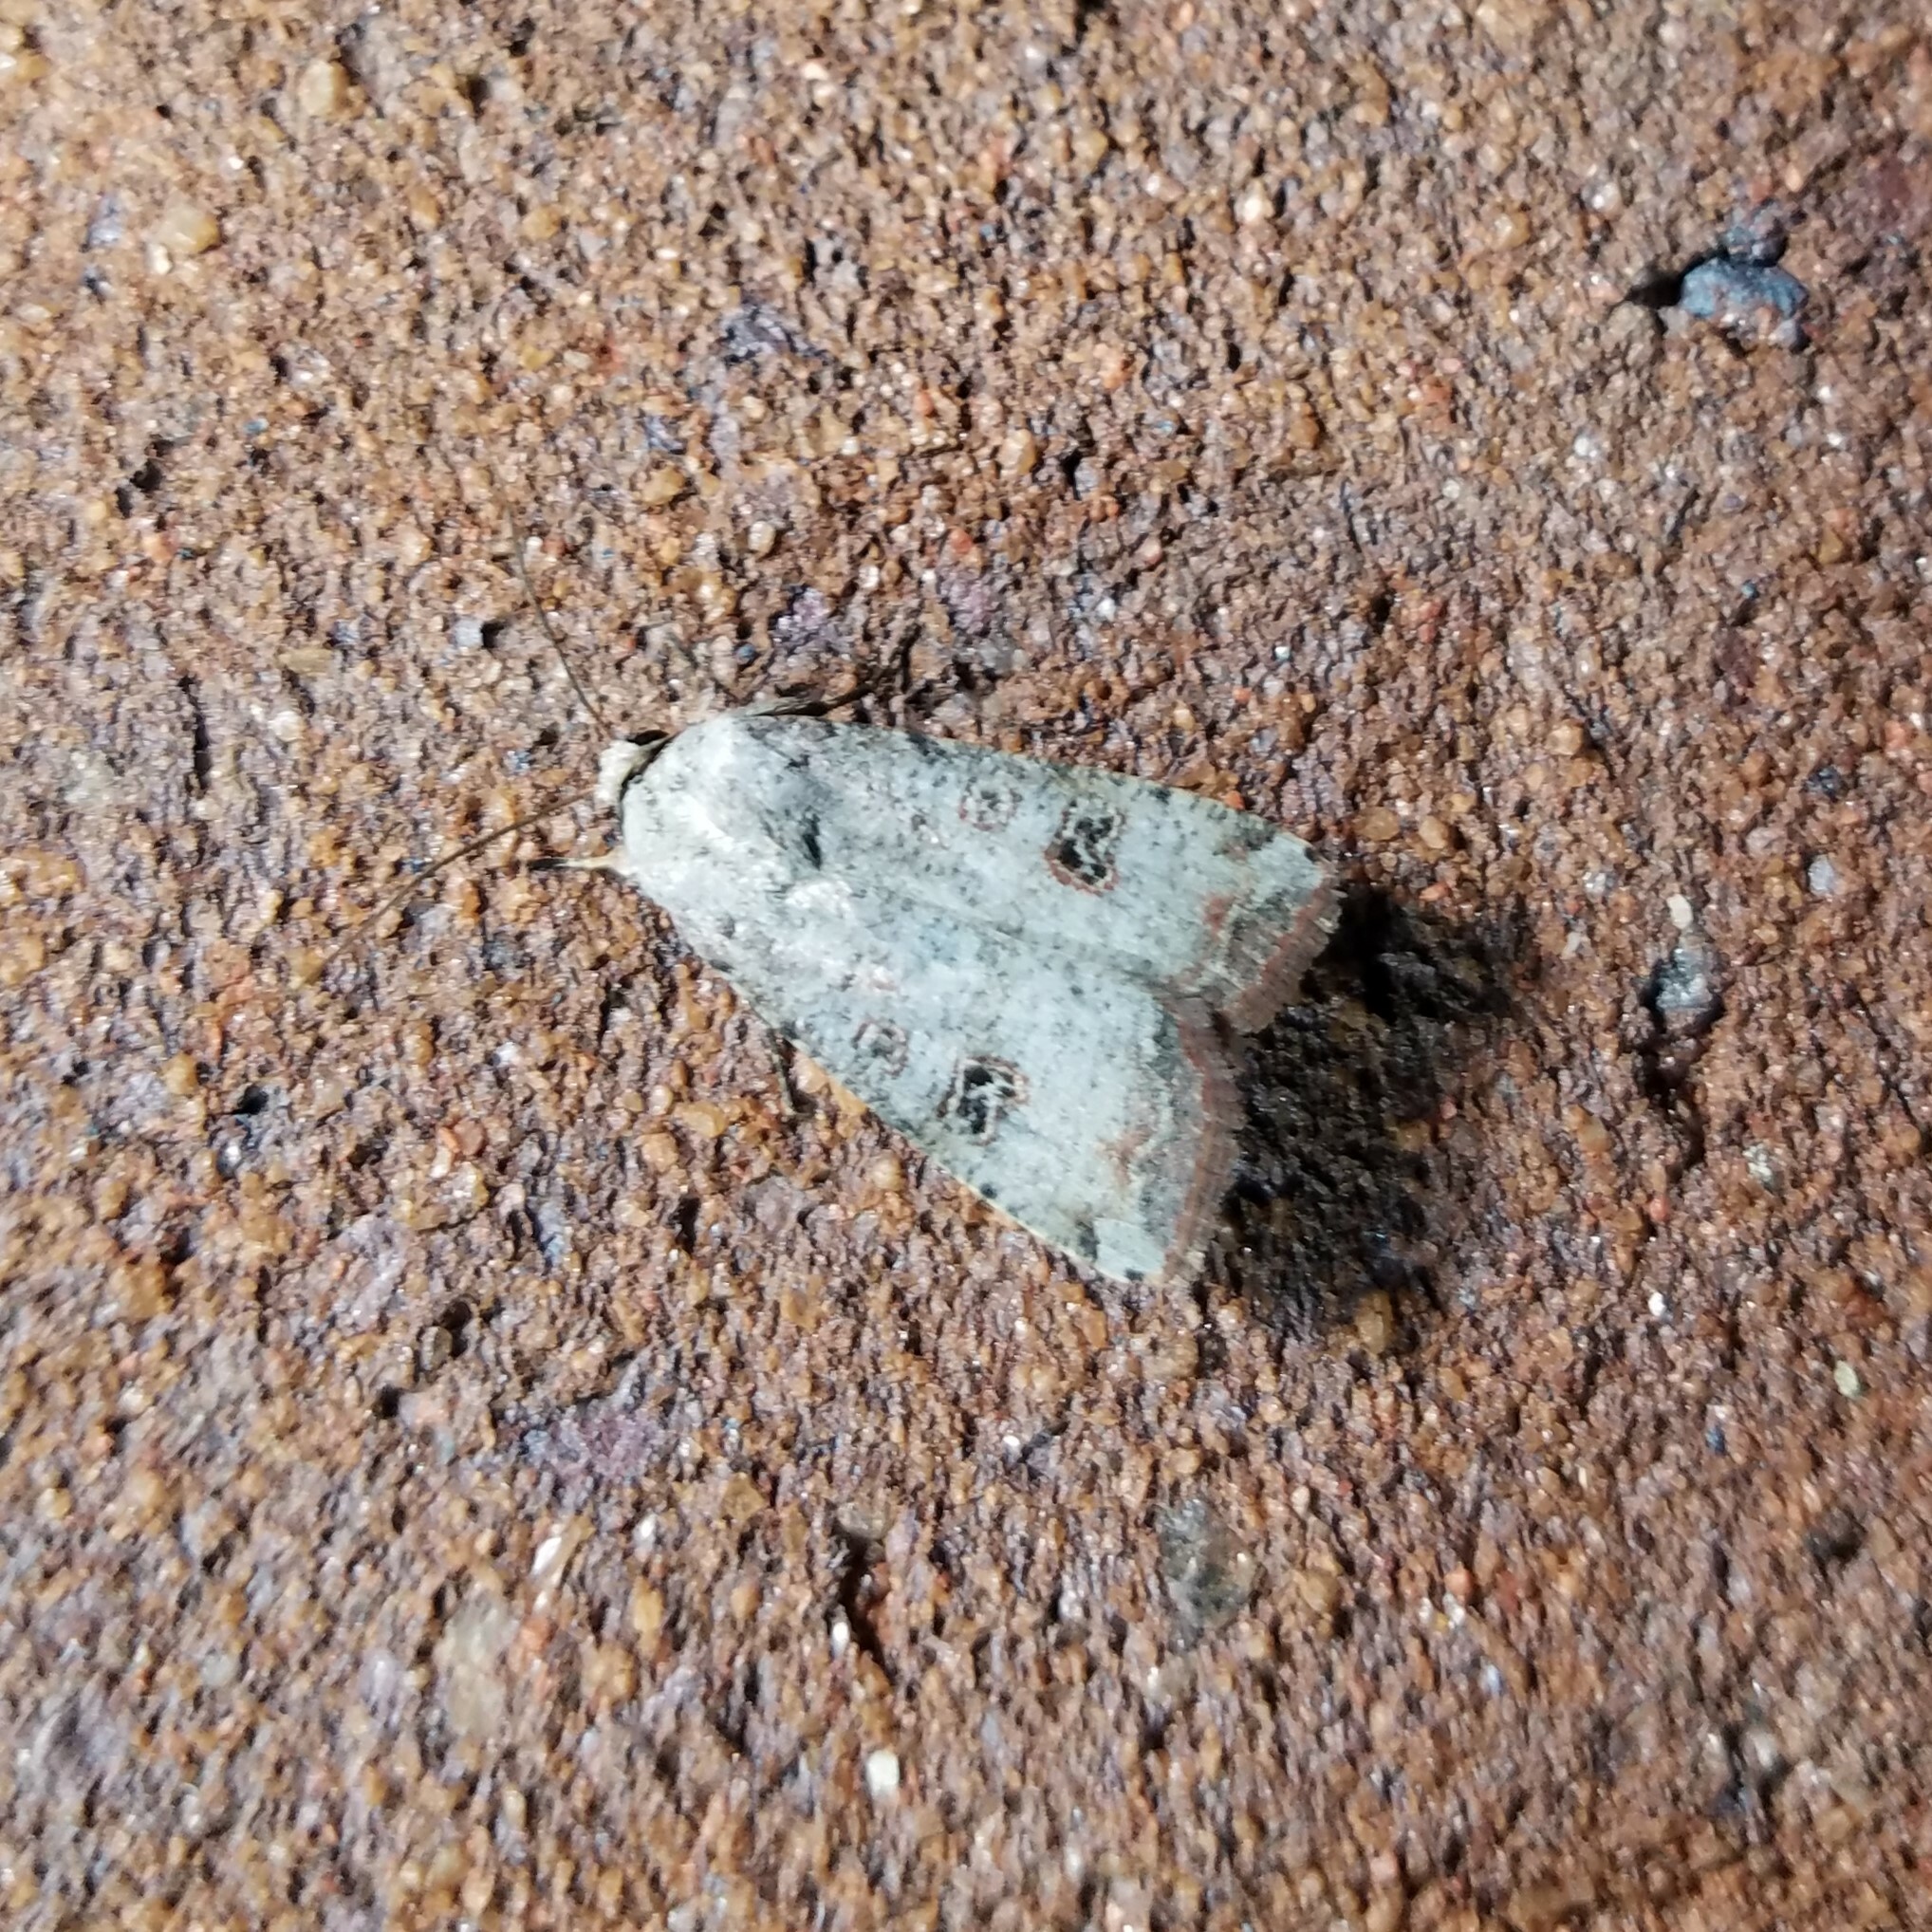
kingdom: Animalia
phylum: Arthropoda
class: Insecta
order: Lepidoptera
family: Noctuidae
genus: Anicla
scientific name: Anicla infecta
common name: Green cutworm
